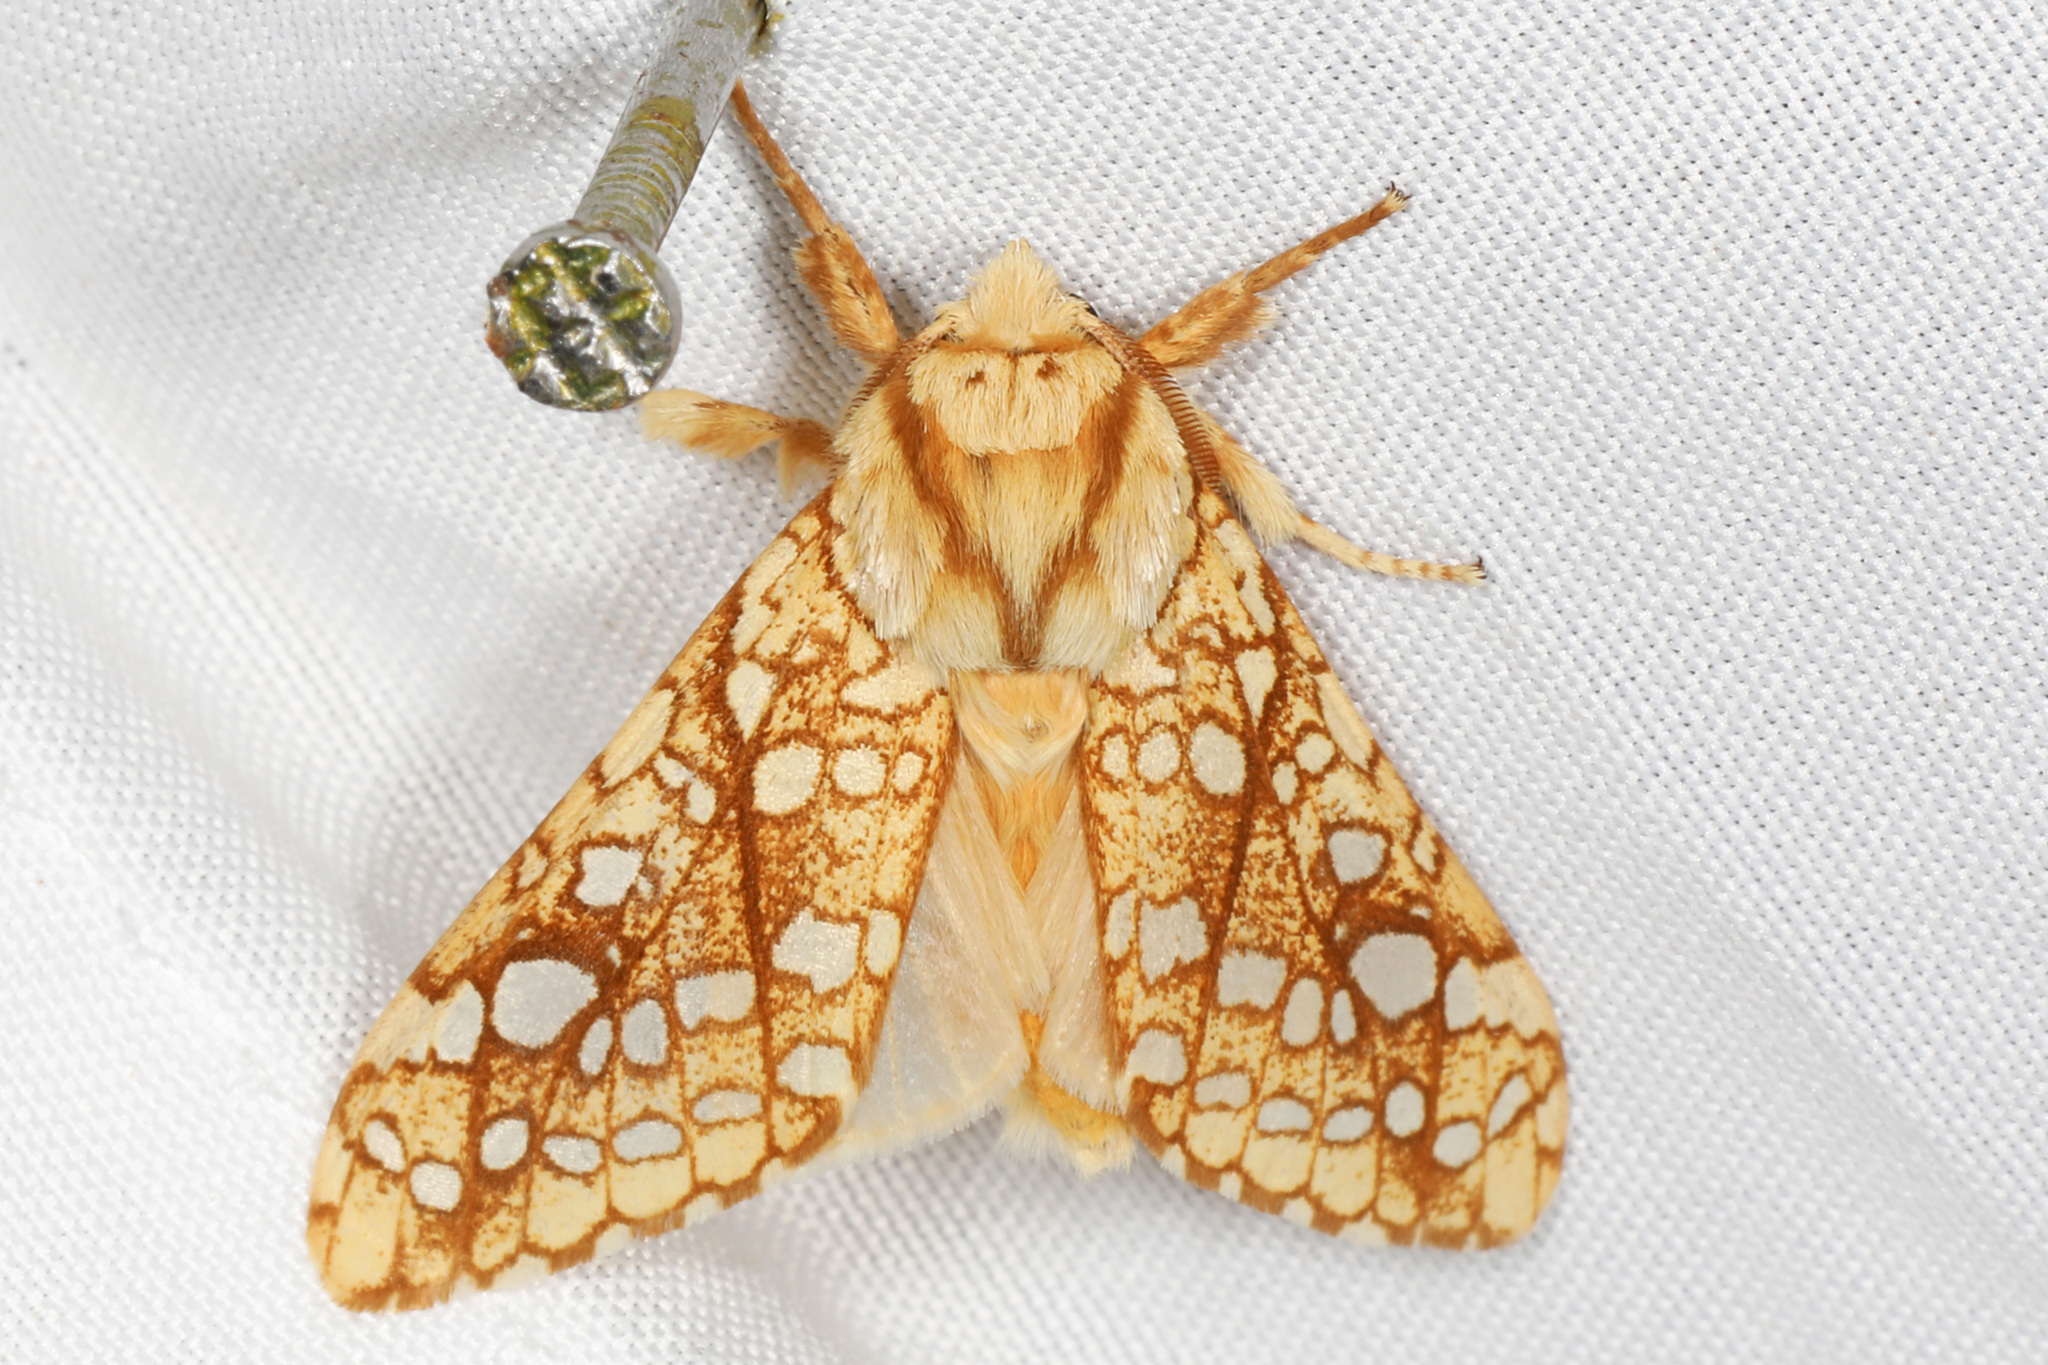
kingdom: Animalia
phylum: Arthropoda
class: Insecta
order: Lepidoptera
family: Erebidae
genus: Lophocampa
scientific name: Lophocampa caryae
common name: Hickory tussock moth
